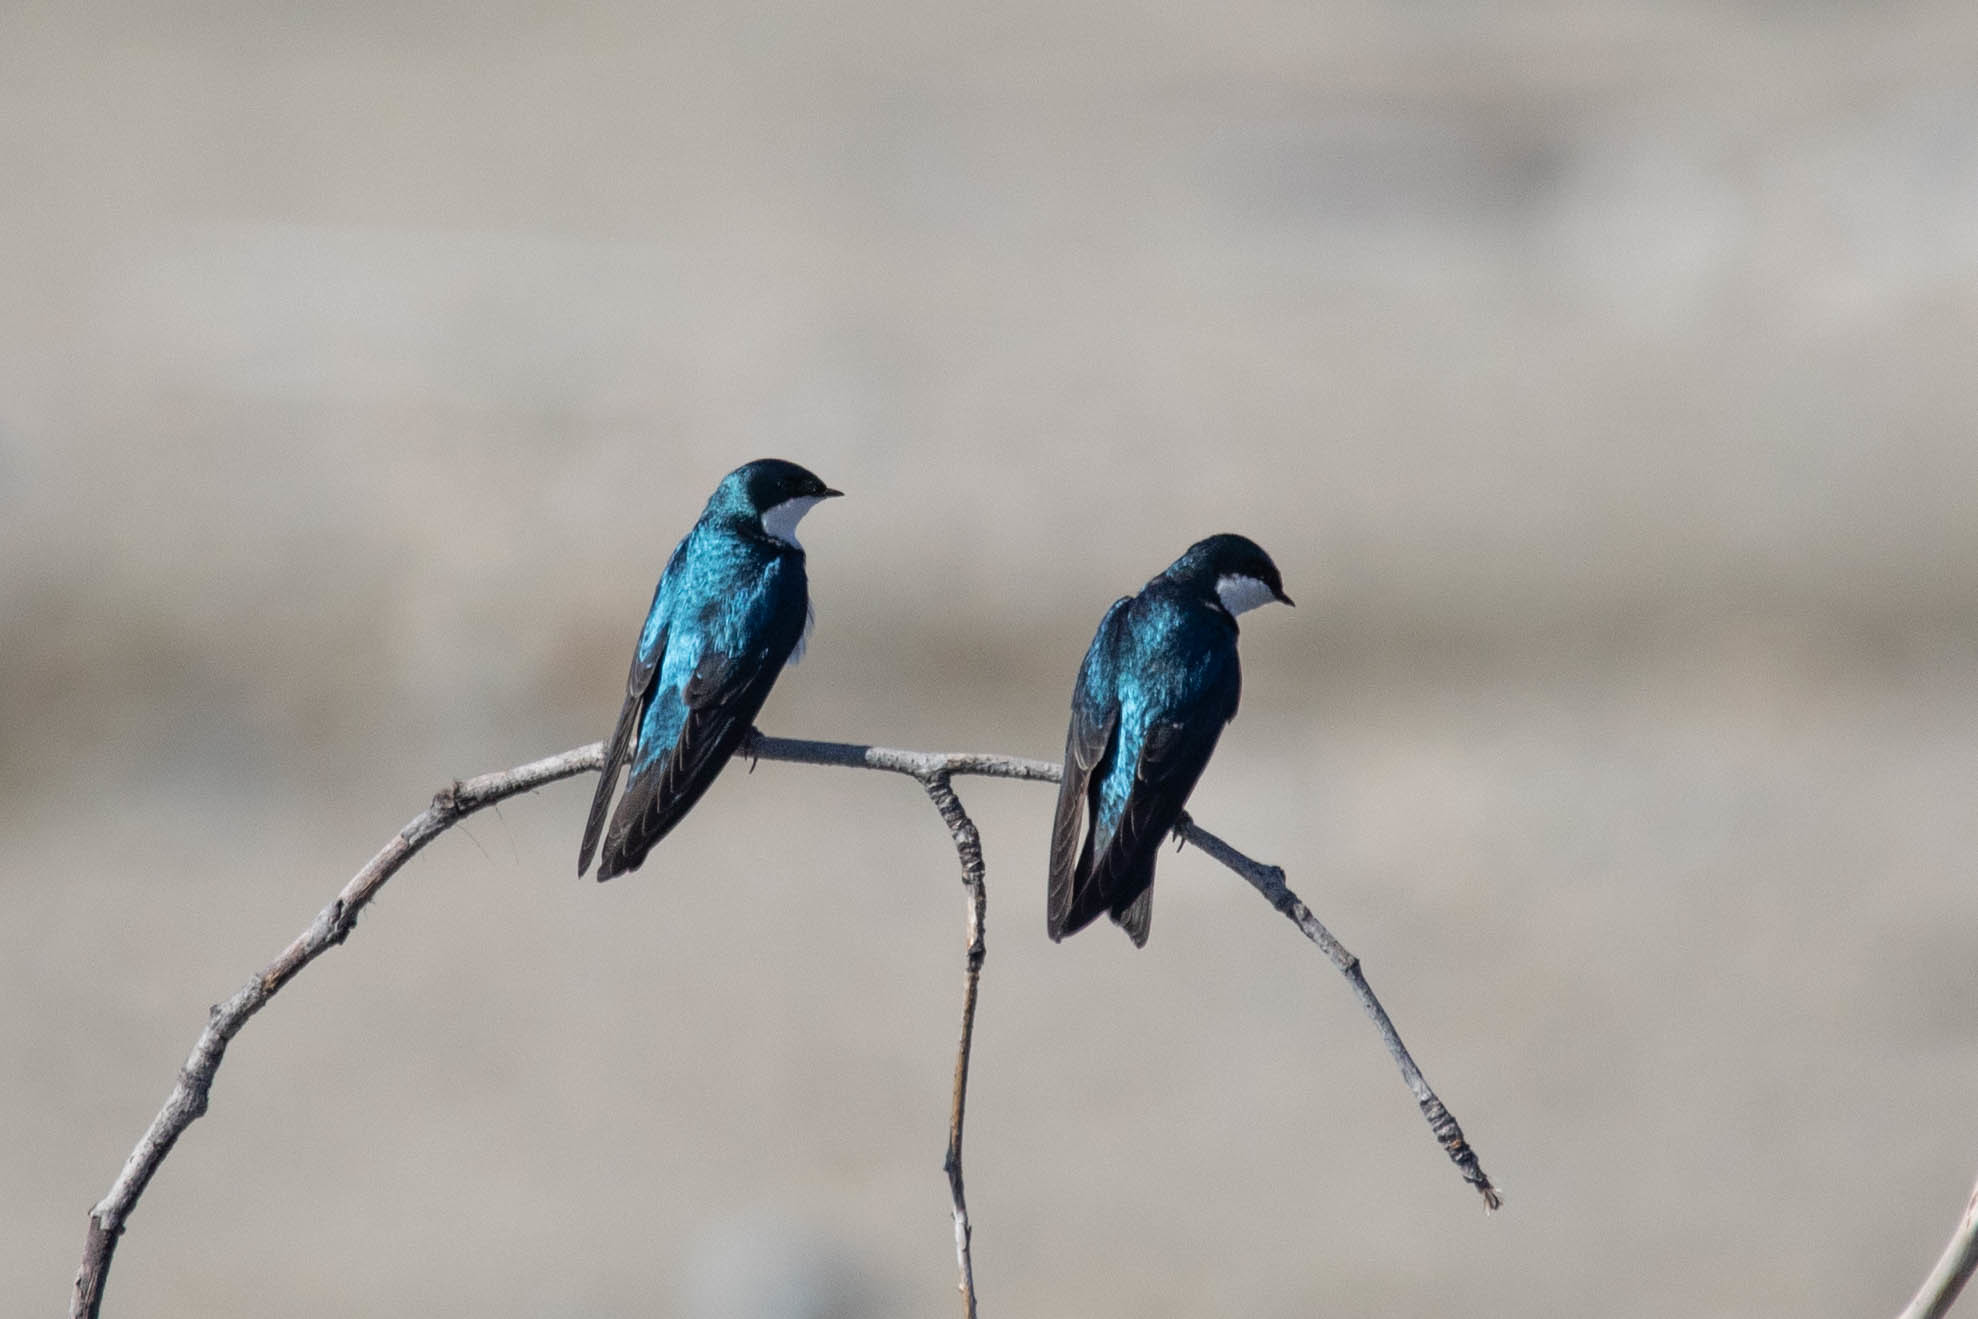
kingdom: Animalia
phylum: Chordata
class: Aves
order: Passeriformes
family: Hirundinidae
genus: Tachycineta
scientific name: Tachycineta bicolor
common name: Tree swallow
